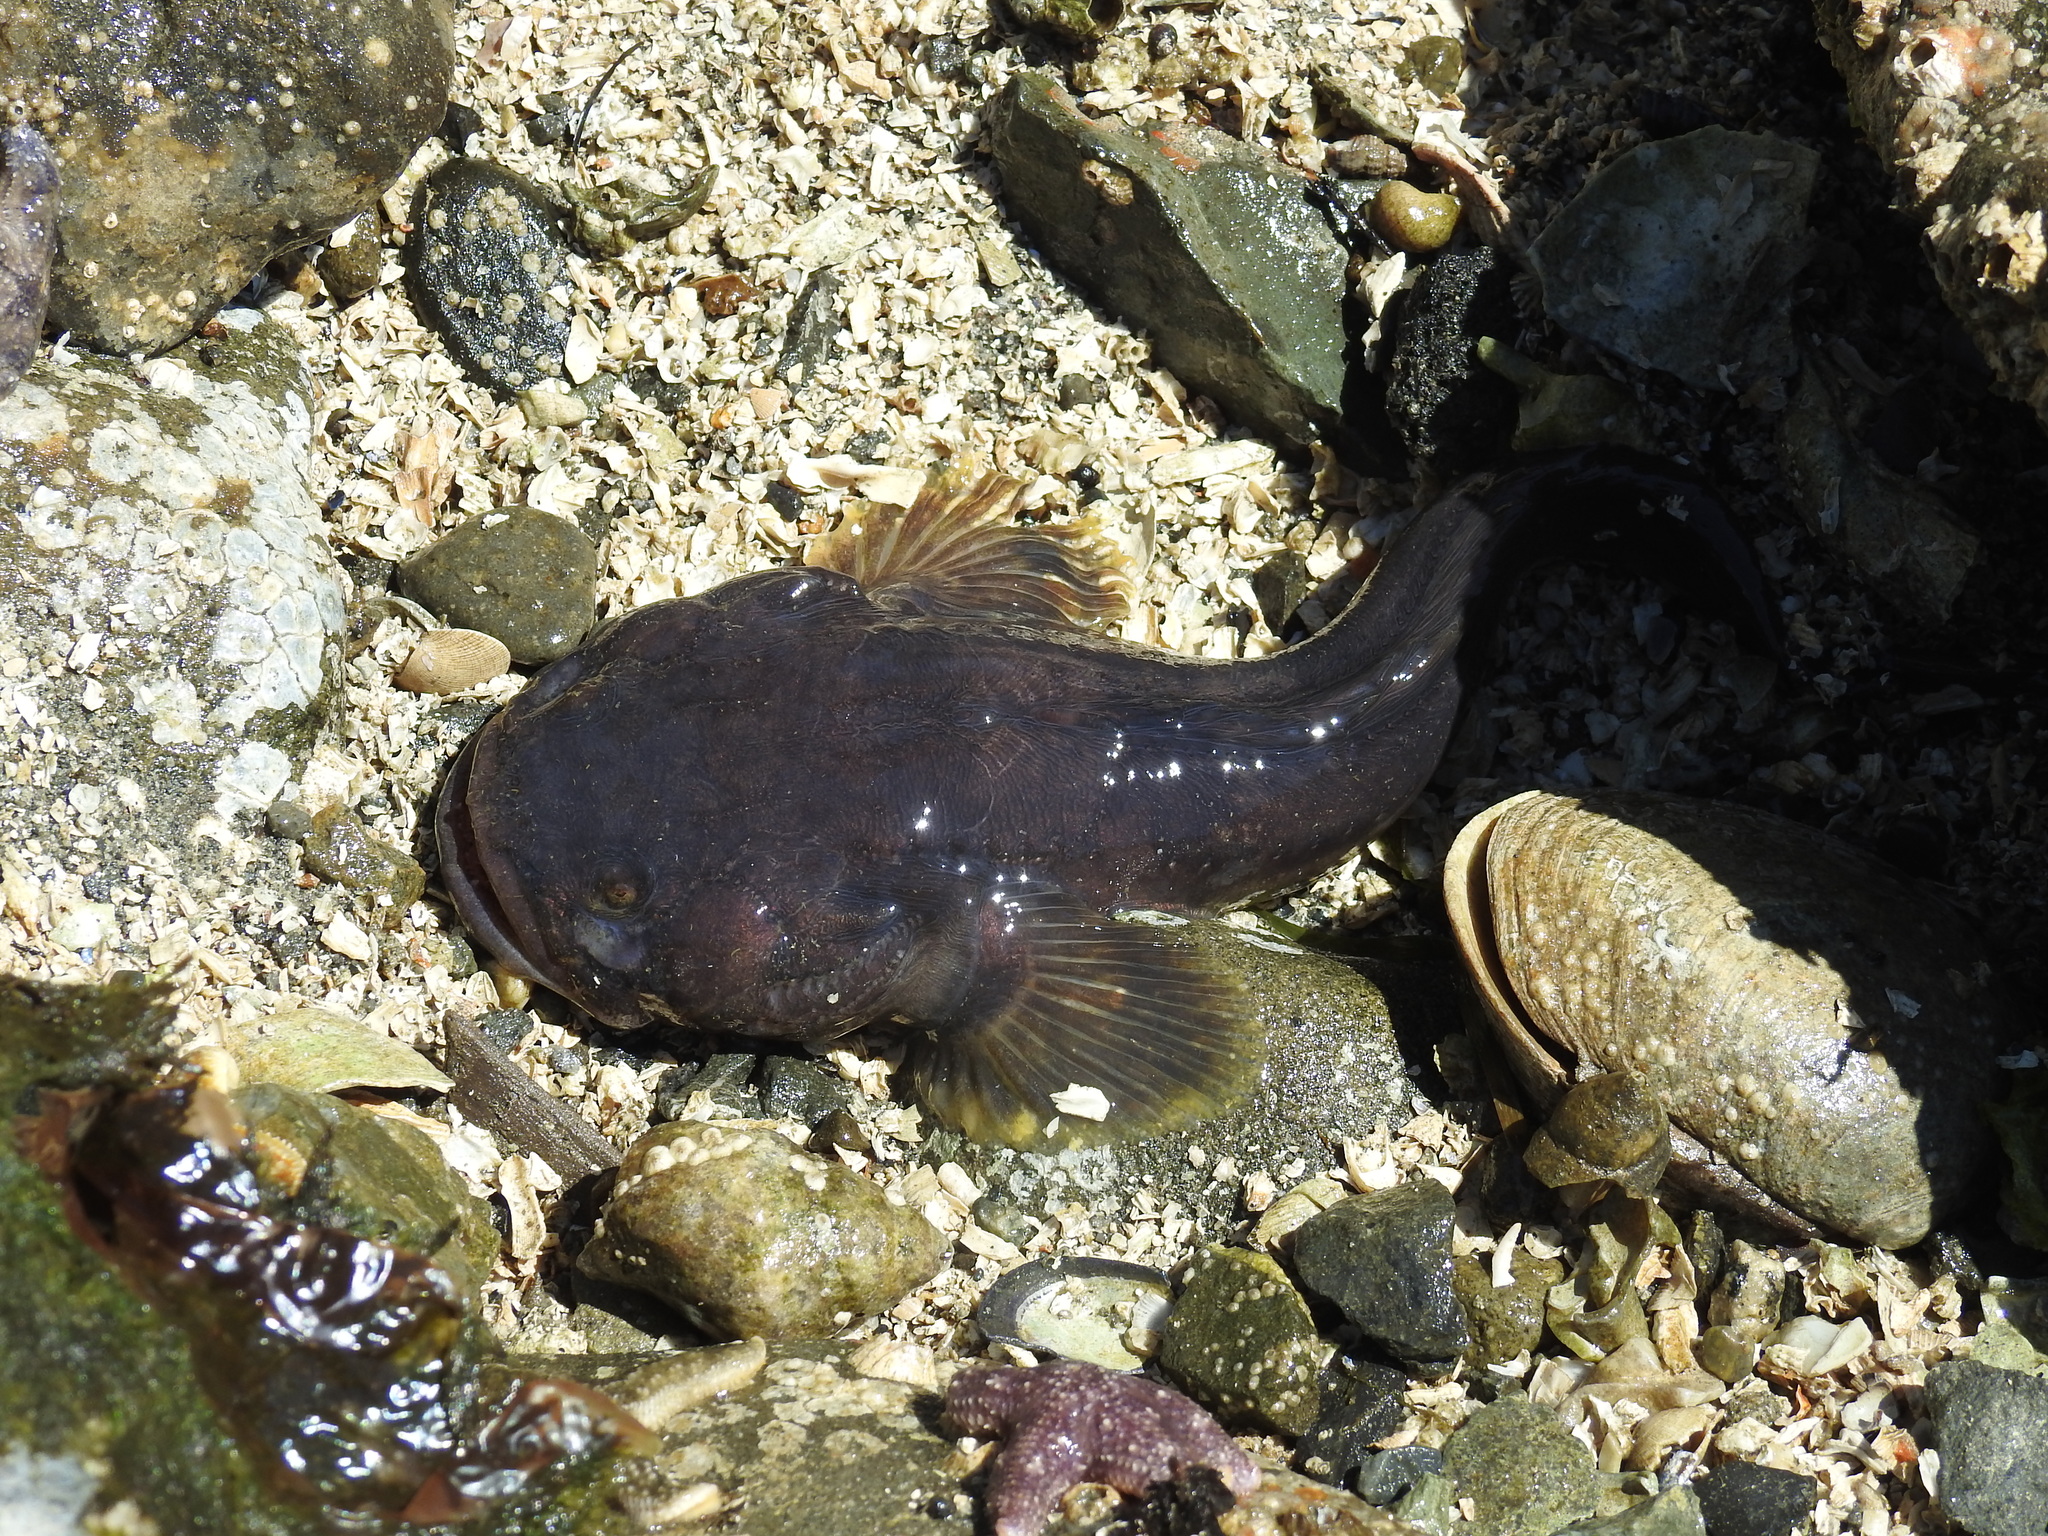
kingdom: Animalia
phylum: Chordata
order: Batrachoidiformes
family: Batrachoididae
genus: Porichthys
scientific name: Porichthys notatus
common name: Plainfin midshipman
